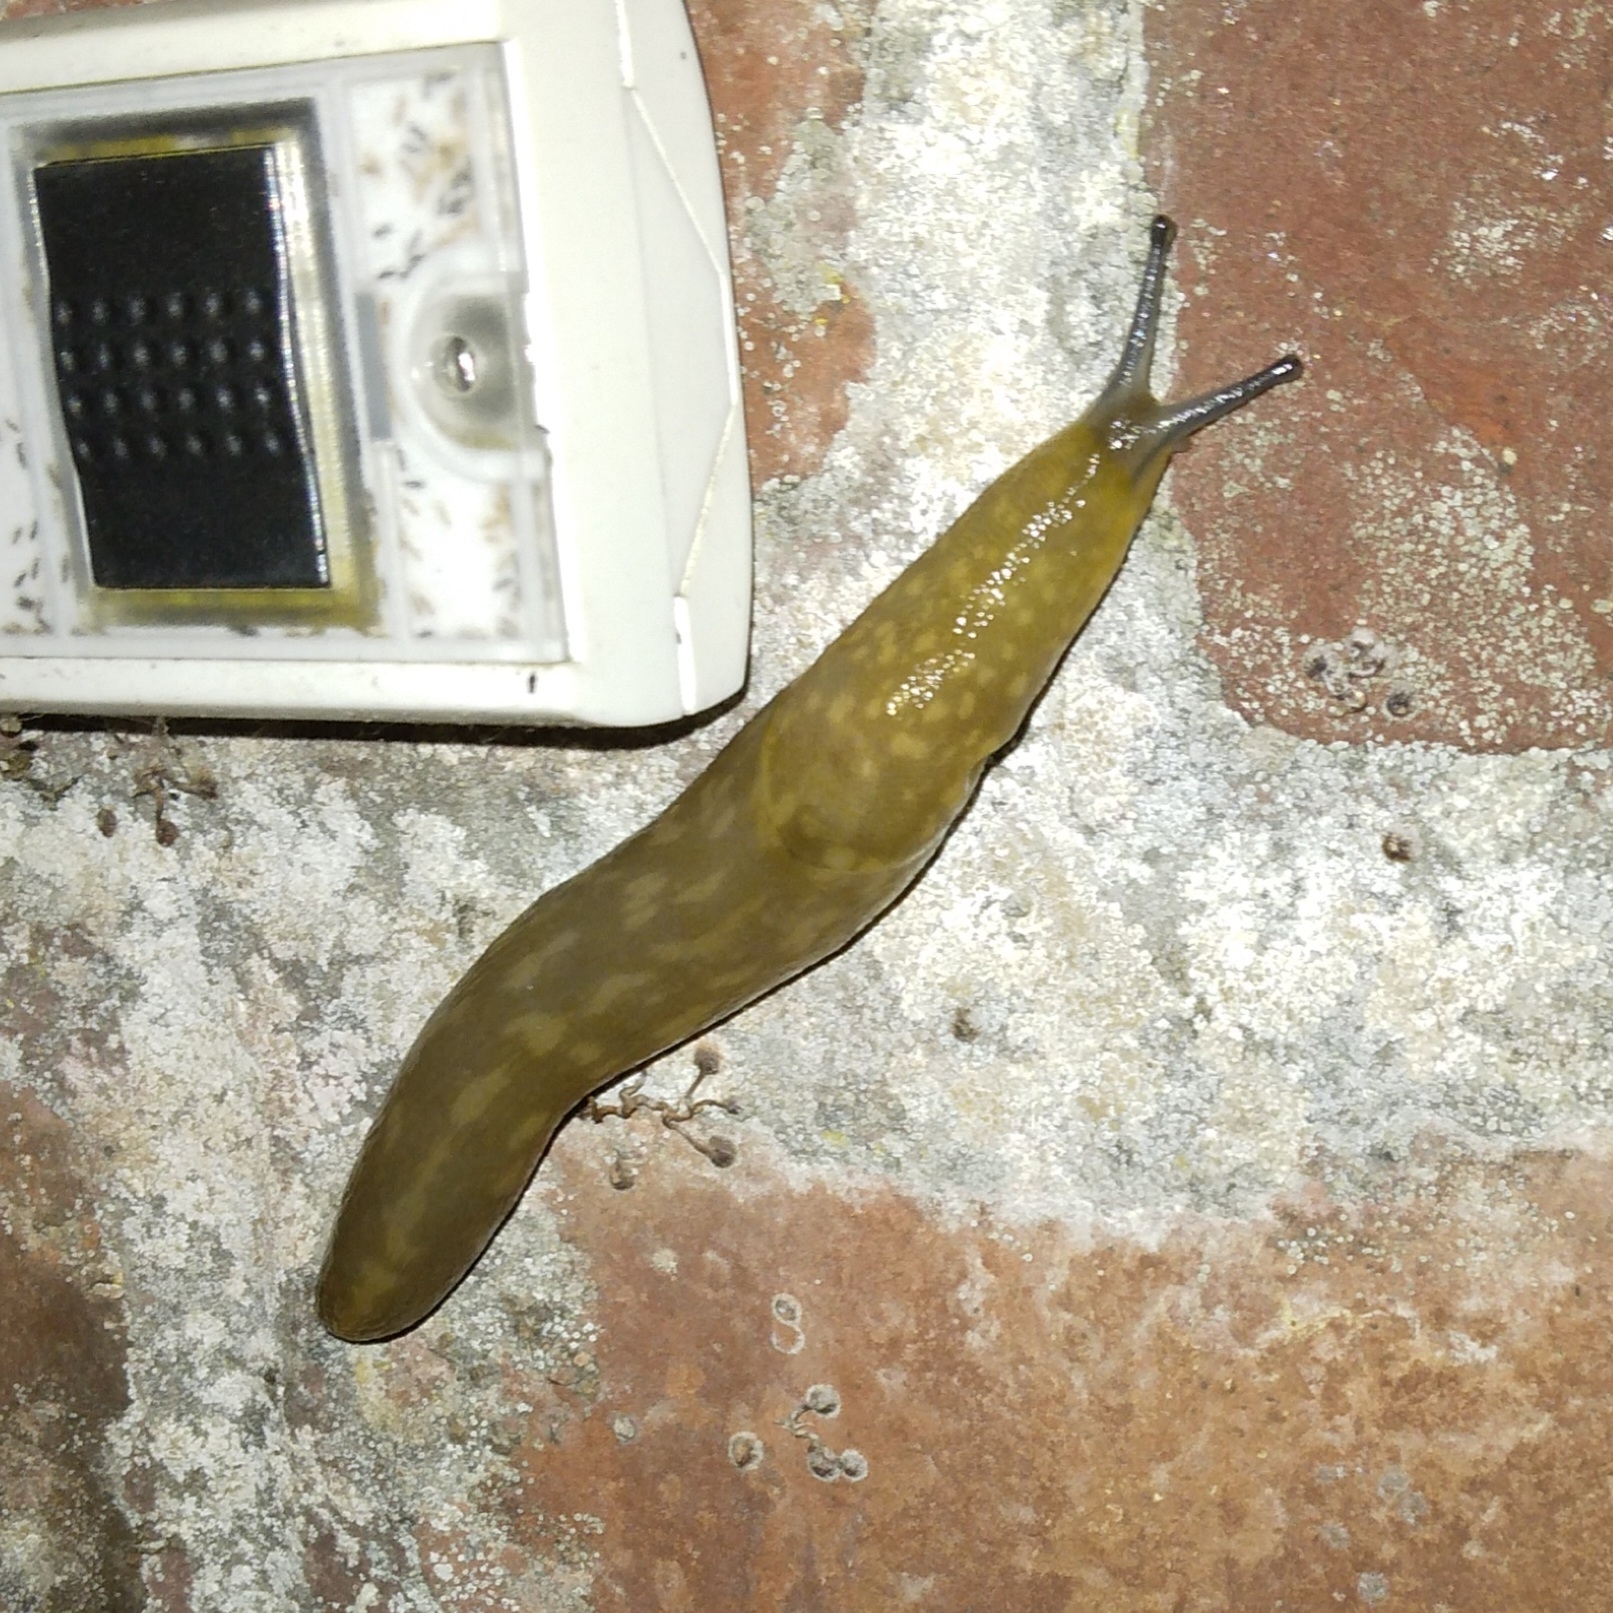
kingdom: Animalia
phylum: Mollusca
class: Gastropoda
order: Stylommatophora
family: Limacidae
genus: Limacus
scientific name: Limacus flavus
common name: Yellow gardenslug
